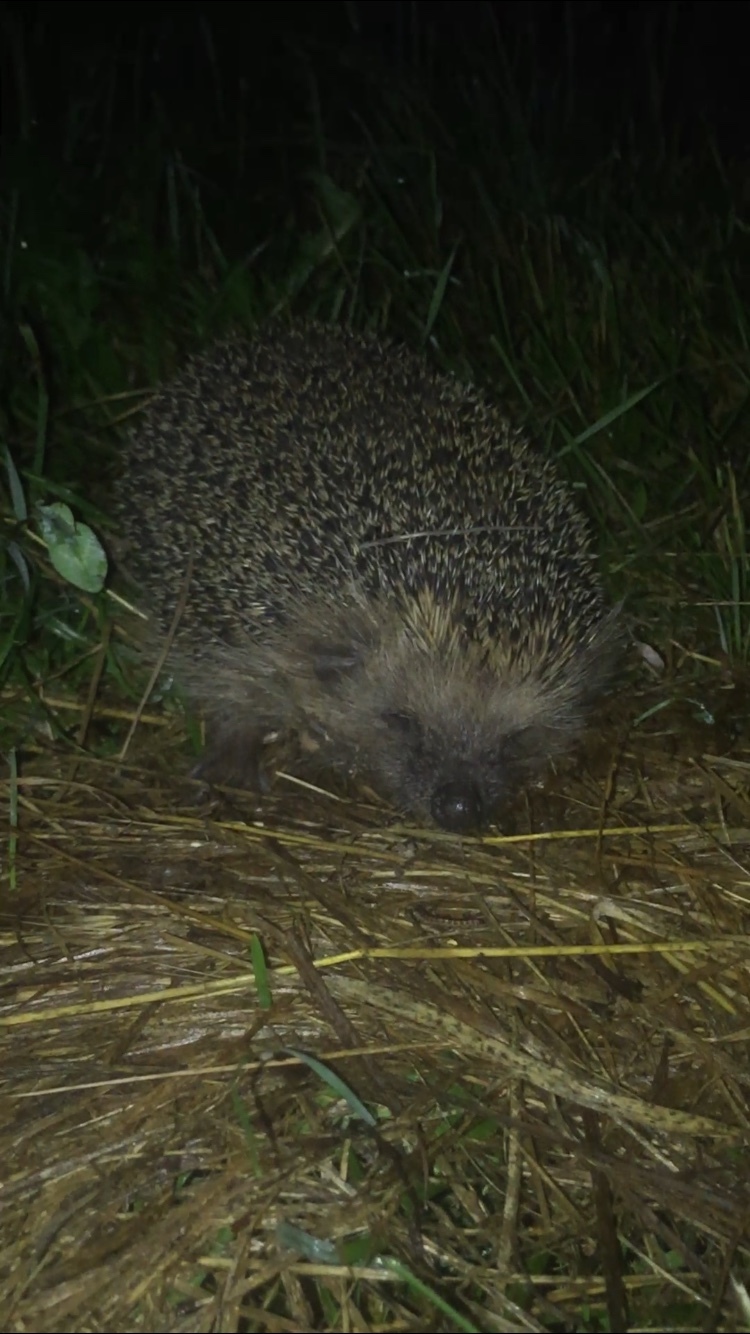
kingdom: Animalia
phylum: Chordata
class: Mammalia
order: Erinaceomorpha
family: Erinaceidae
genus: Erinaceus
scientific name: Erinaceus europaeus
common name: West european hedgehog
